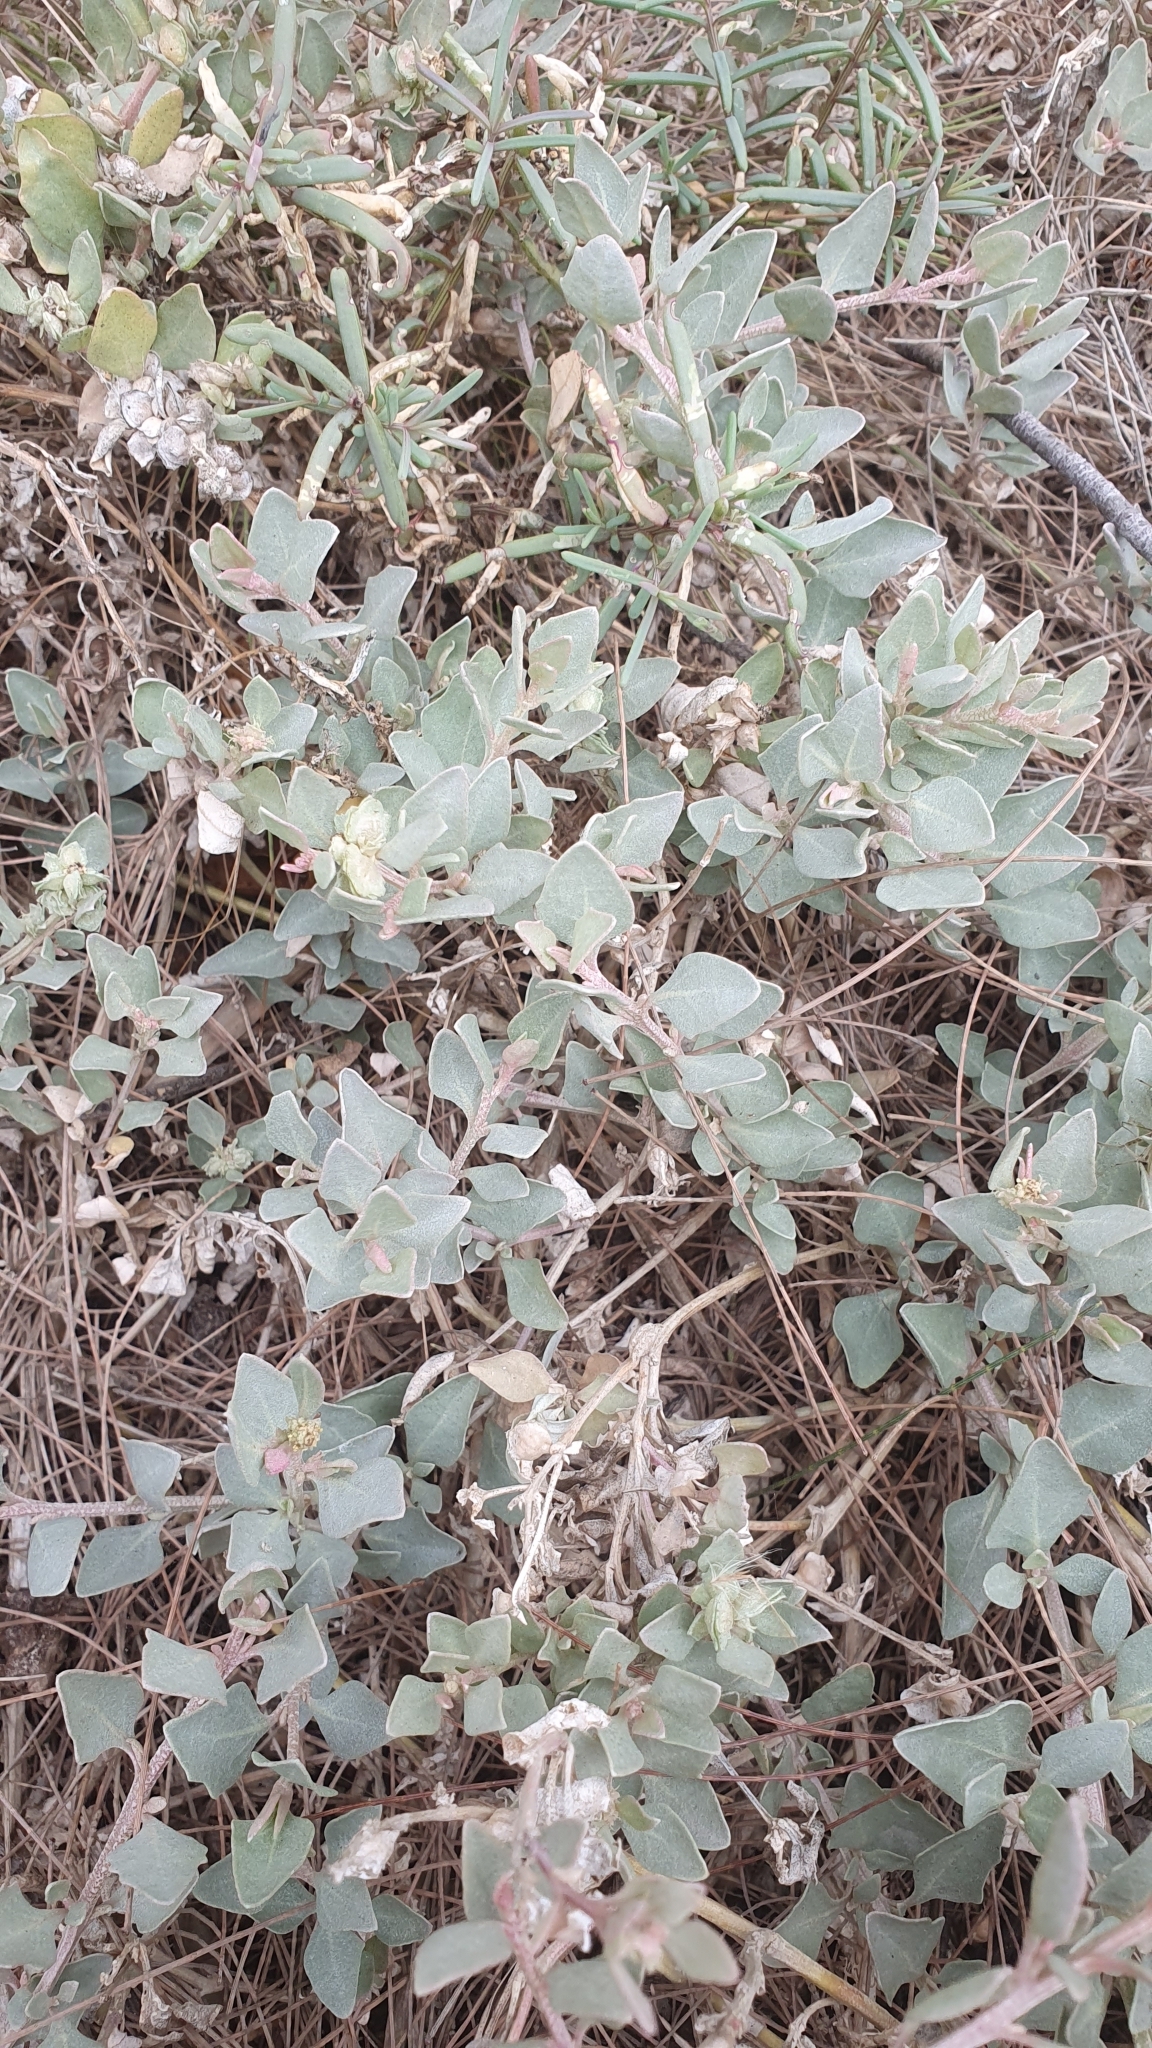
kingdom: Plantae
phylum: Tracheophyta
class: Magnoliopsida
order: Caryophyllales
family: Amaranthaceae
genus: Atriplex
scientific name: Atriplex maximowicziana
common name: Maximowicz's saltbush
